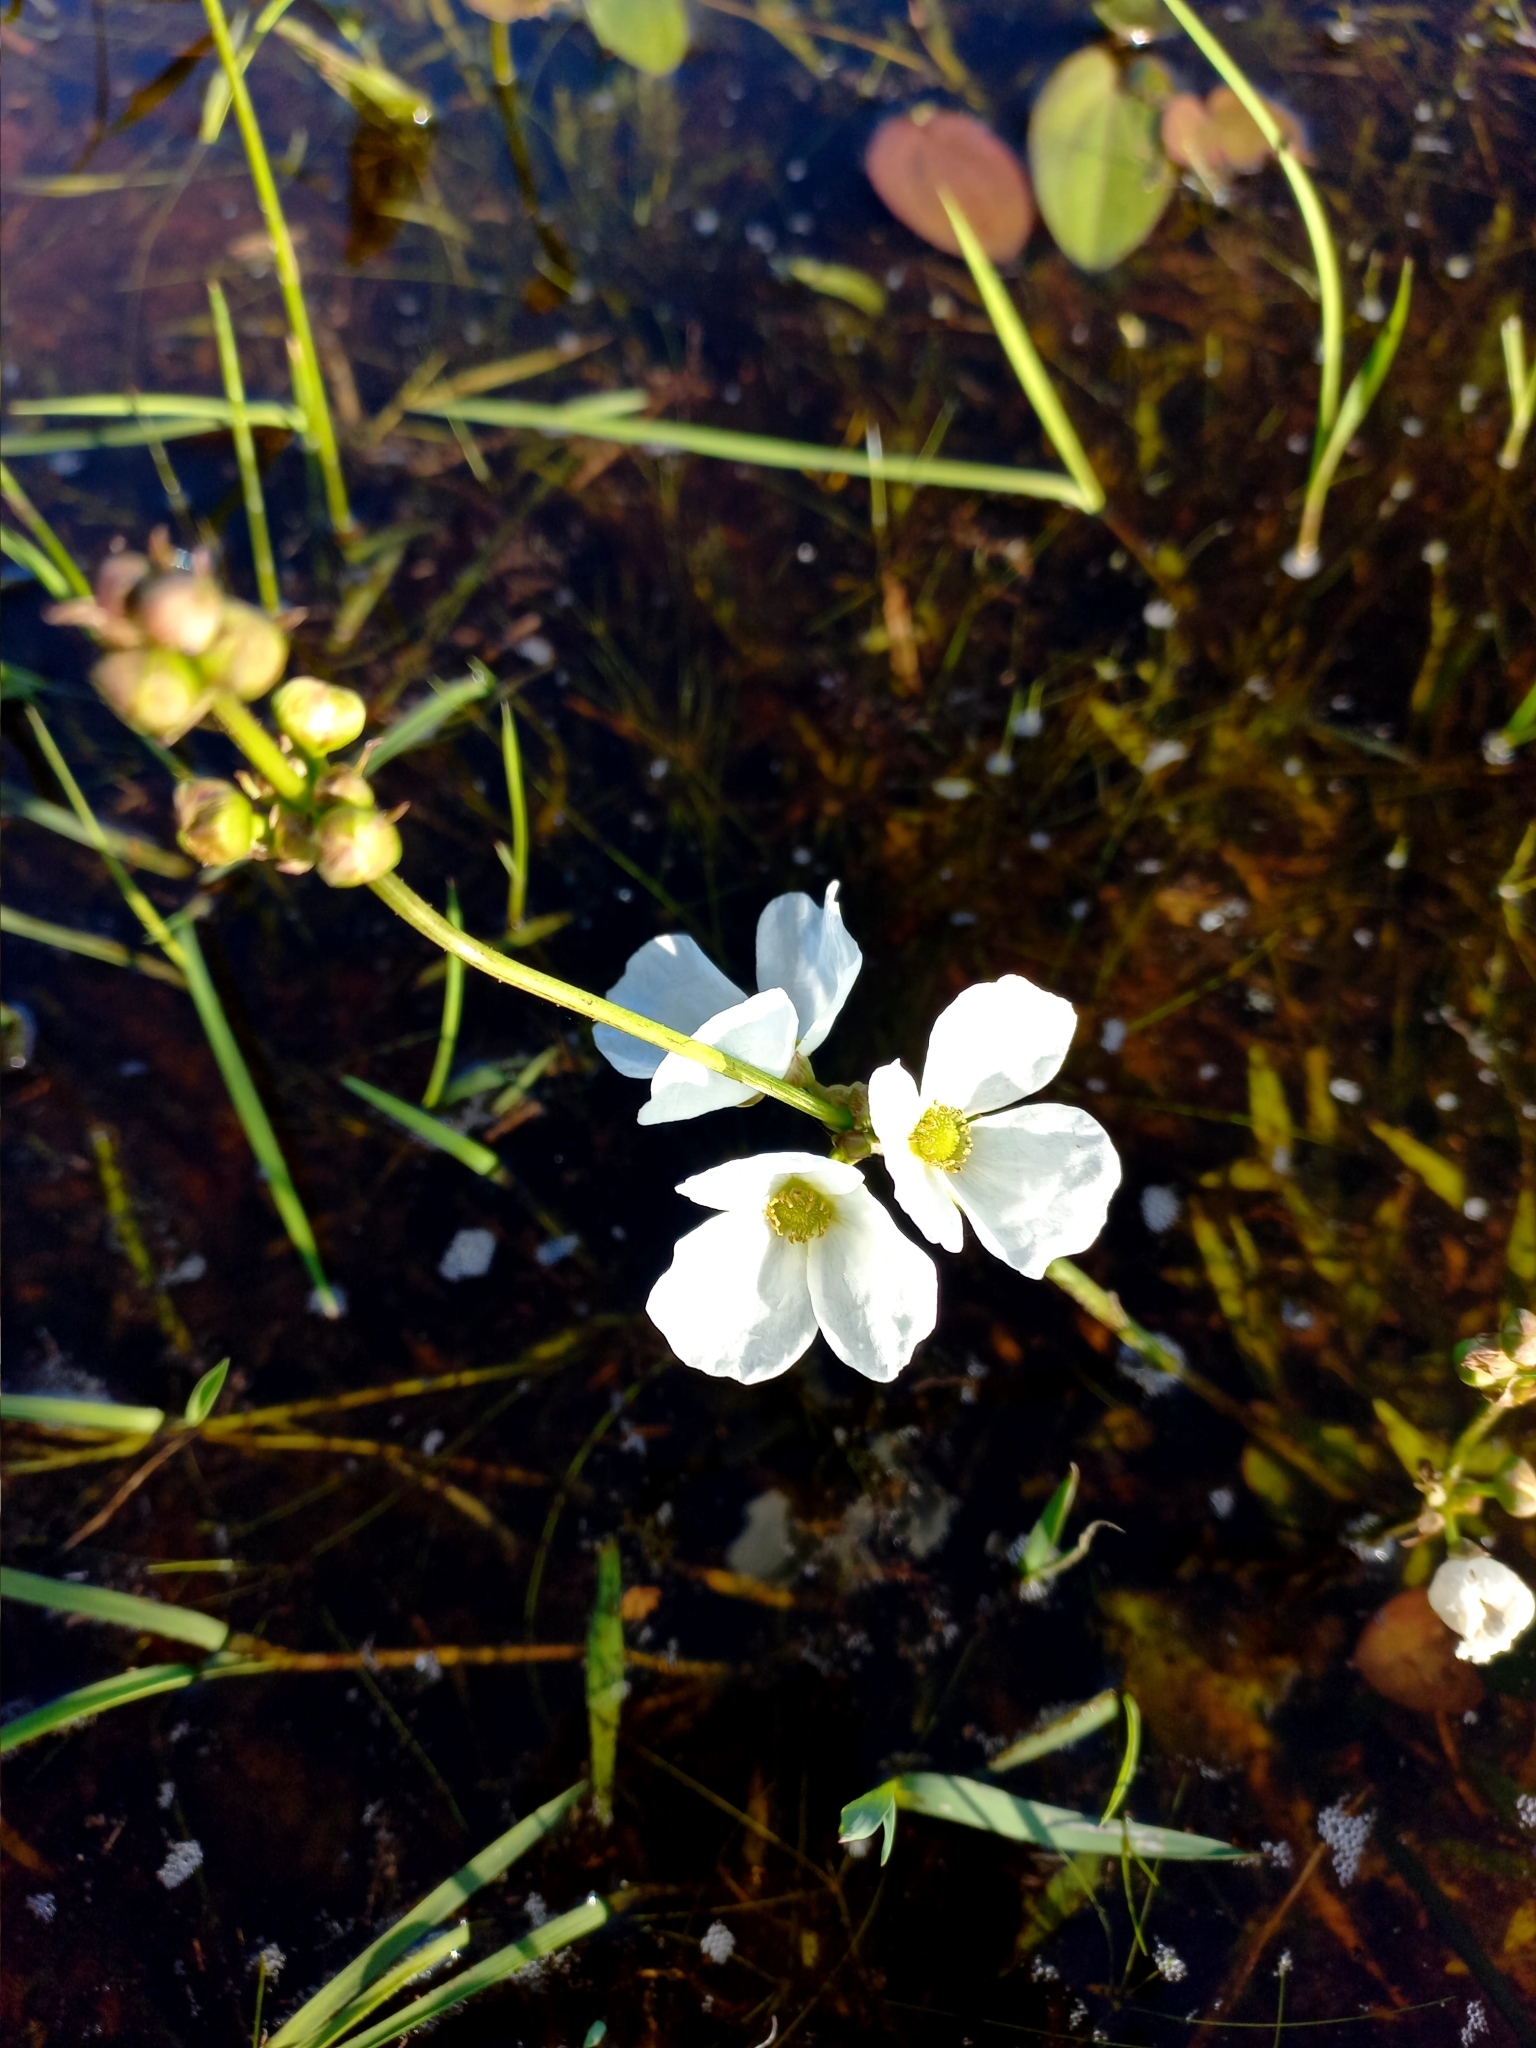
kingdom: Plantae
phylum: Tracheophyta
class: Liliopsida
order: Alismatales
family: Alismataceae
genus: Aquarius
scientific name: Aquarius longiscapus
